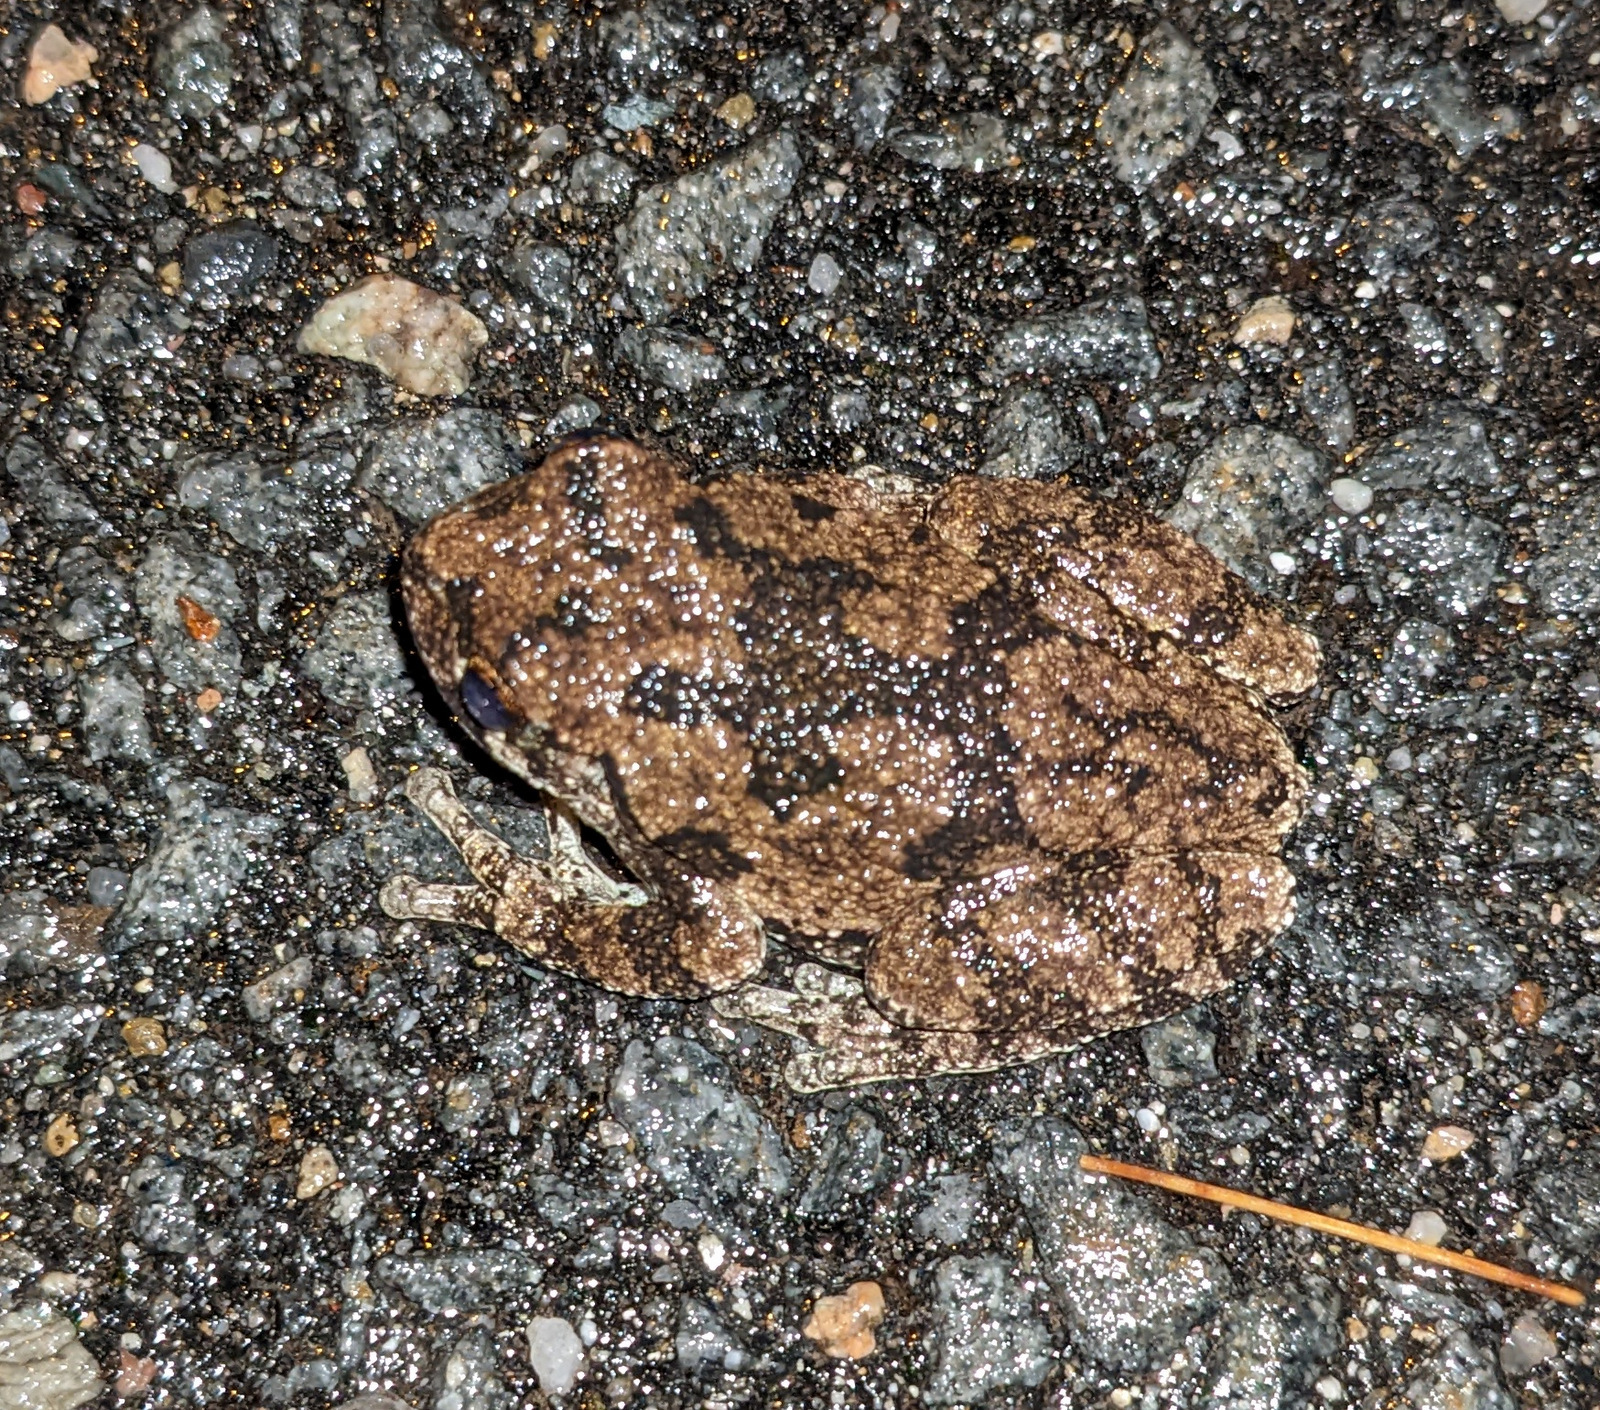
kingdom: Animalia
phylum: Chordata
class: Amphibia
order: Anura
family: Hylidae
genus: Dryophytes
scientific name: Dryophytes versicolor
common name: Gray treefrog
